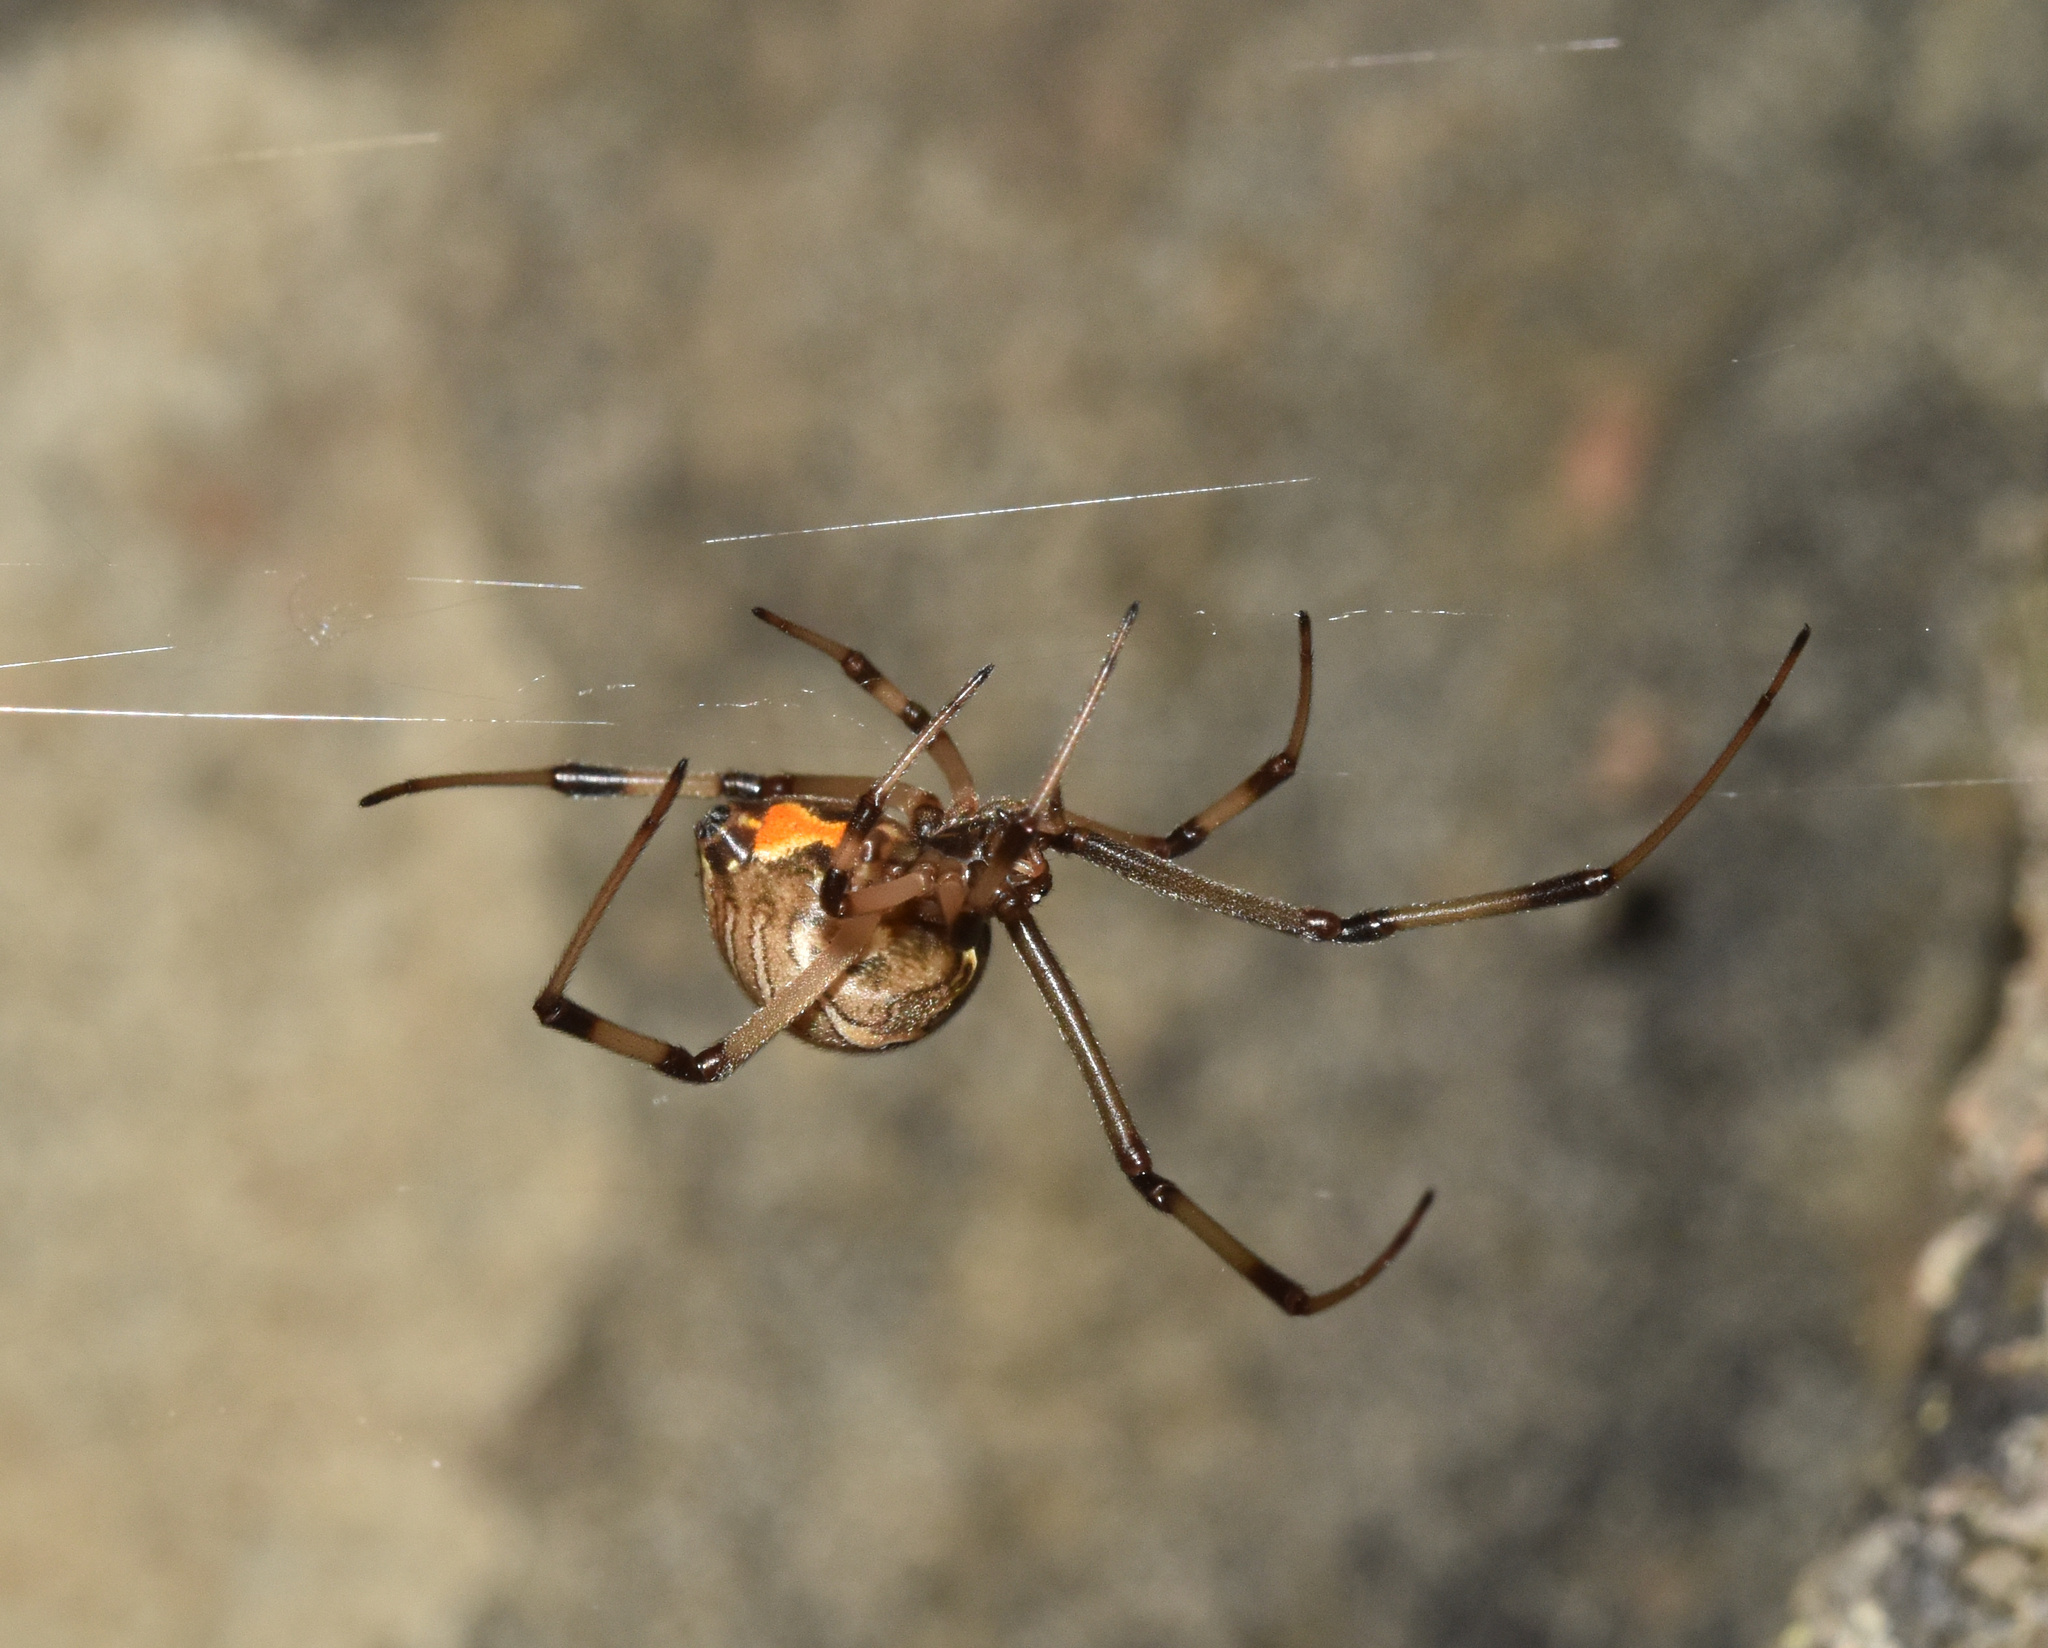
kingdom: Animalia
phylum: Arthropoda
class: Arachnida
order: Araneae
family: Theridiidae
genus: Latrodectus
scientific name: Latrodectus geometricus
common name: Brown widow spider
